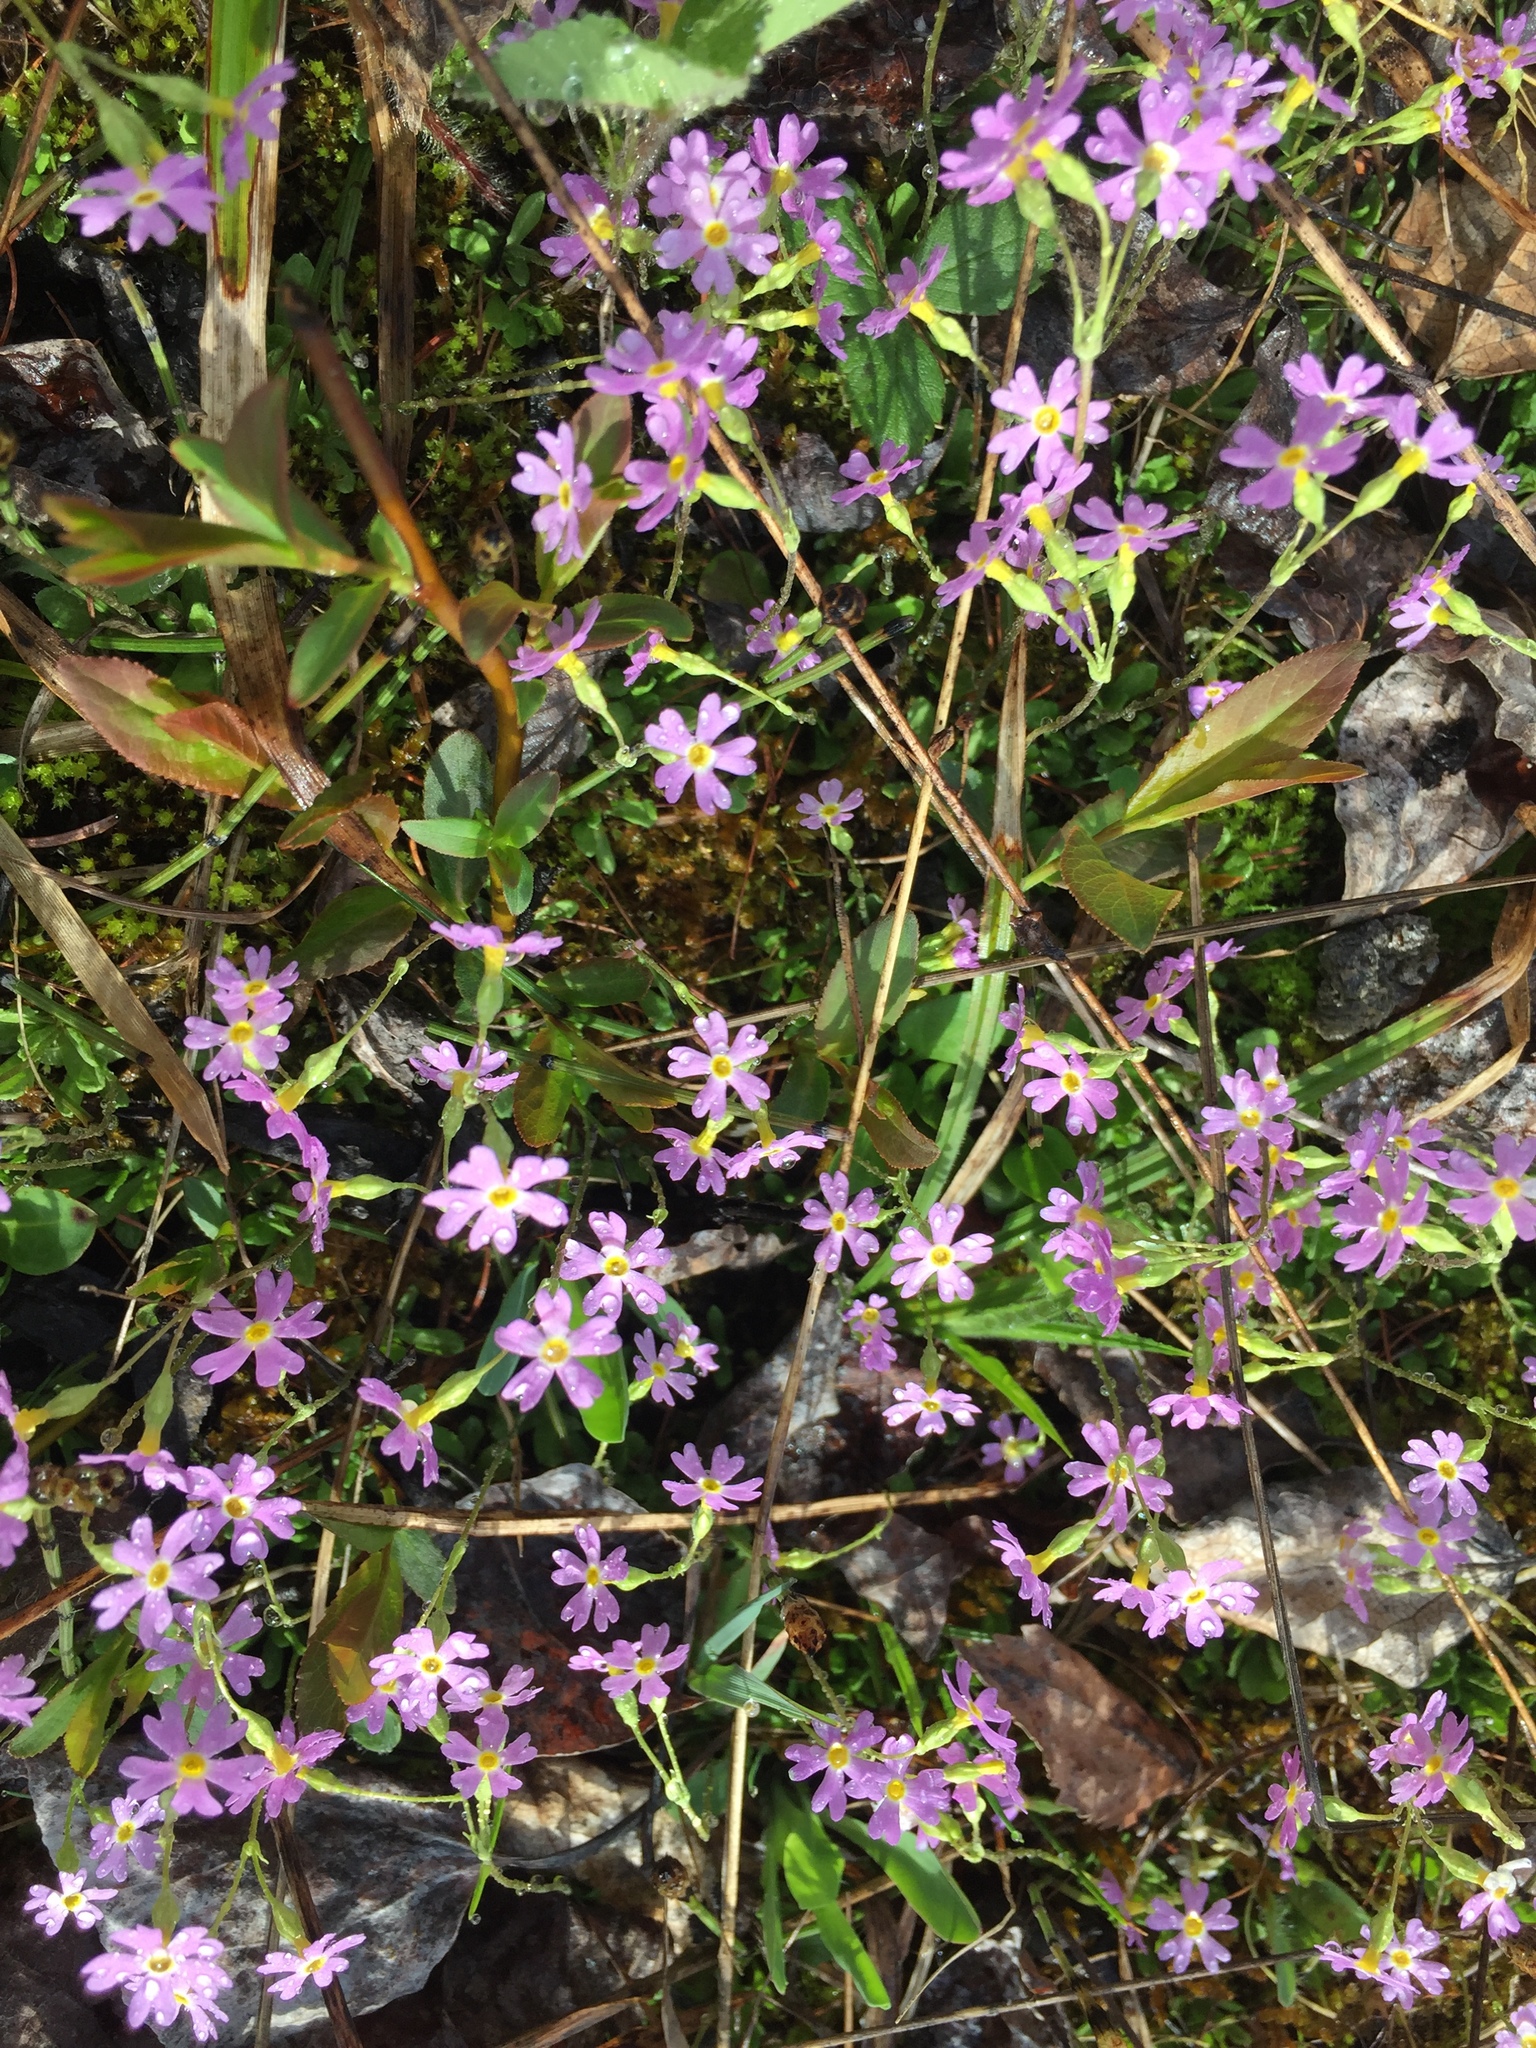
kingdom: Plantae
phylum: Tracheophyta
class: Magnoliopsida
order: Ericales
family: Primulaceae
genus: Primula
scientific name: Primula mistassinica
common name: Bird's-eye primrose
